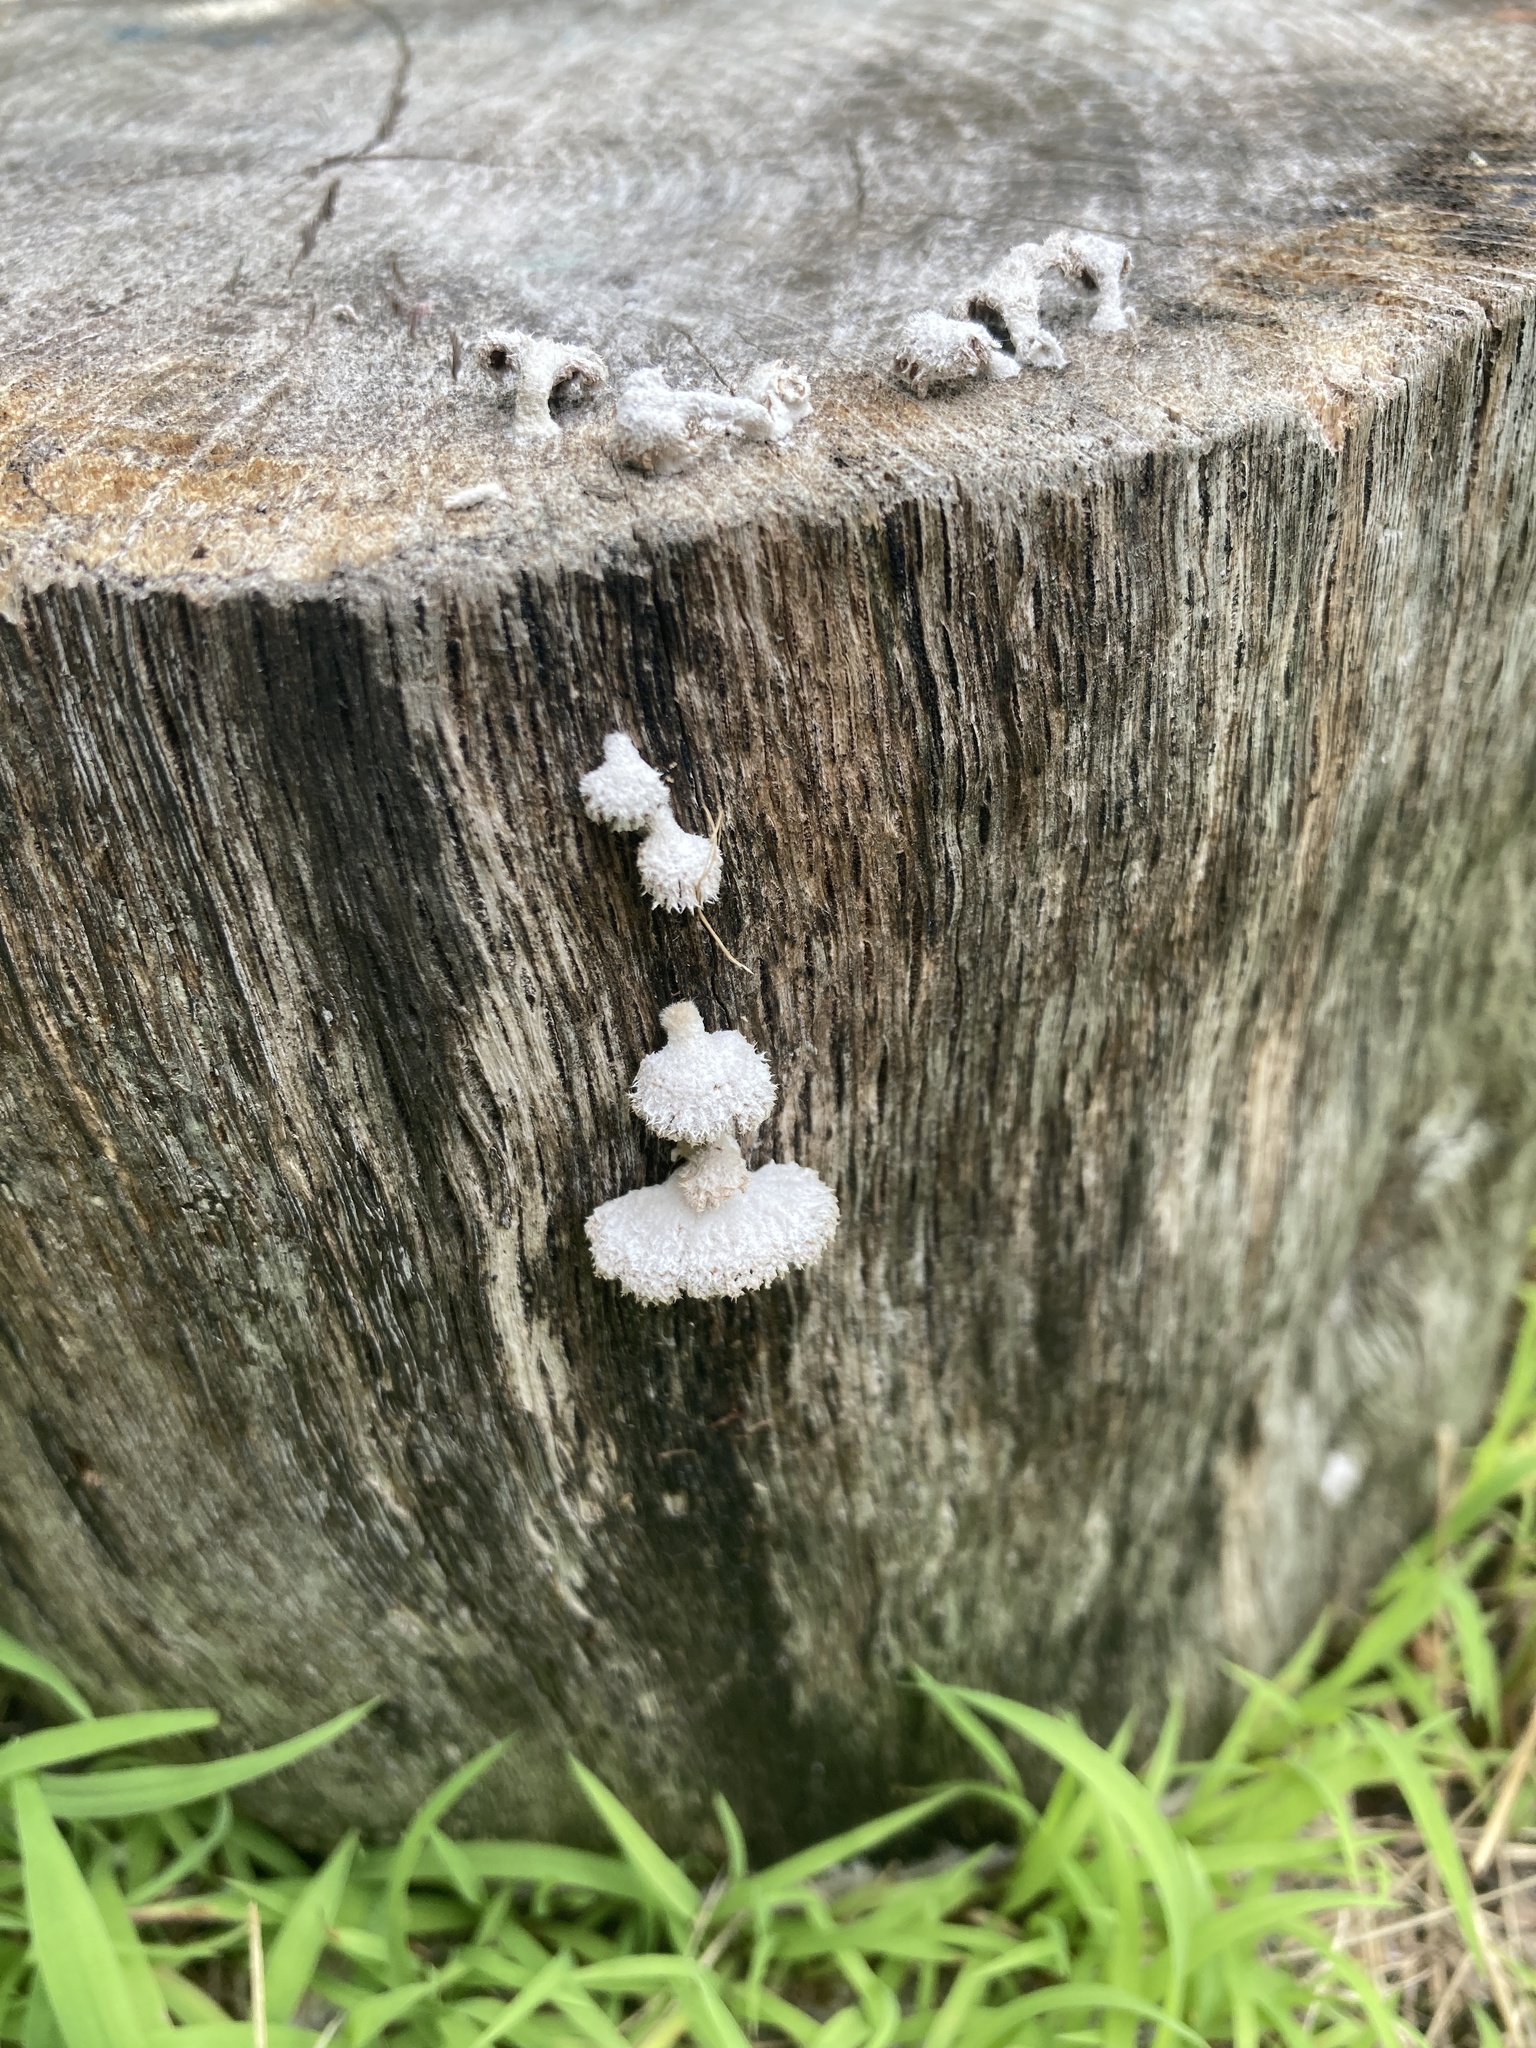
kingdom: Fungi
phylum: Basidiomycota
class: Agaricomycetes
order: Agaricales
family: Schizophyllaceae
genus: Schizophyllum
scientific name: Schizophyllum commune
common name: Common porecrust
